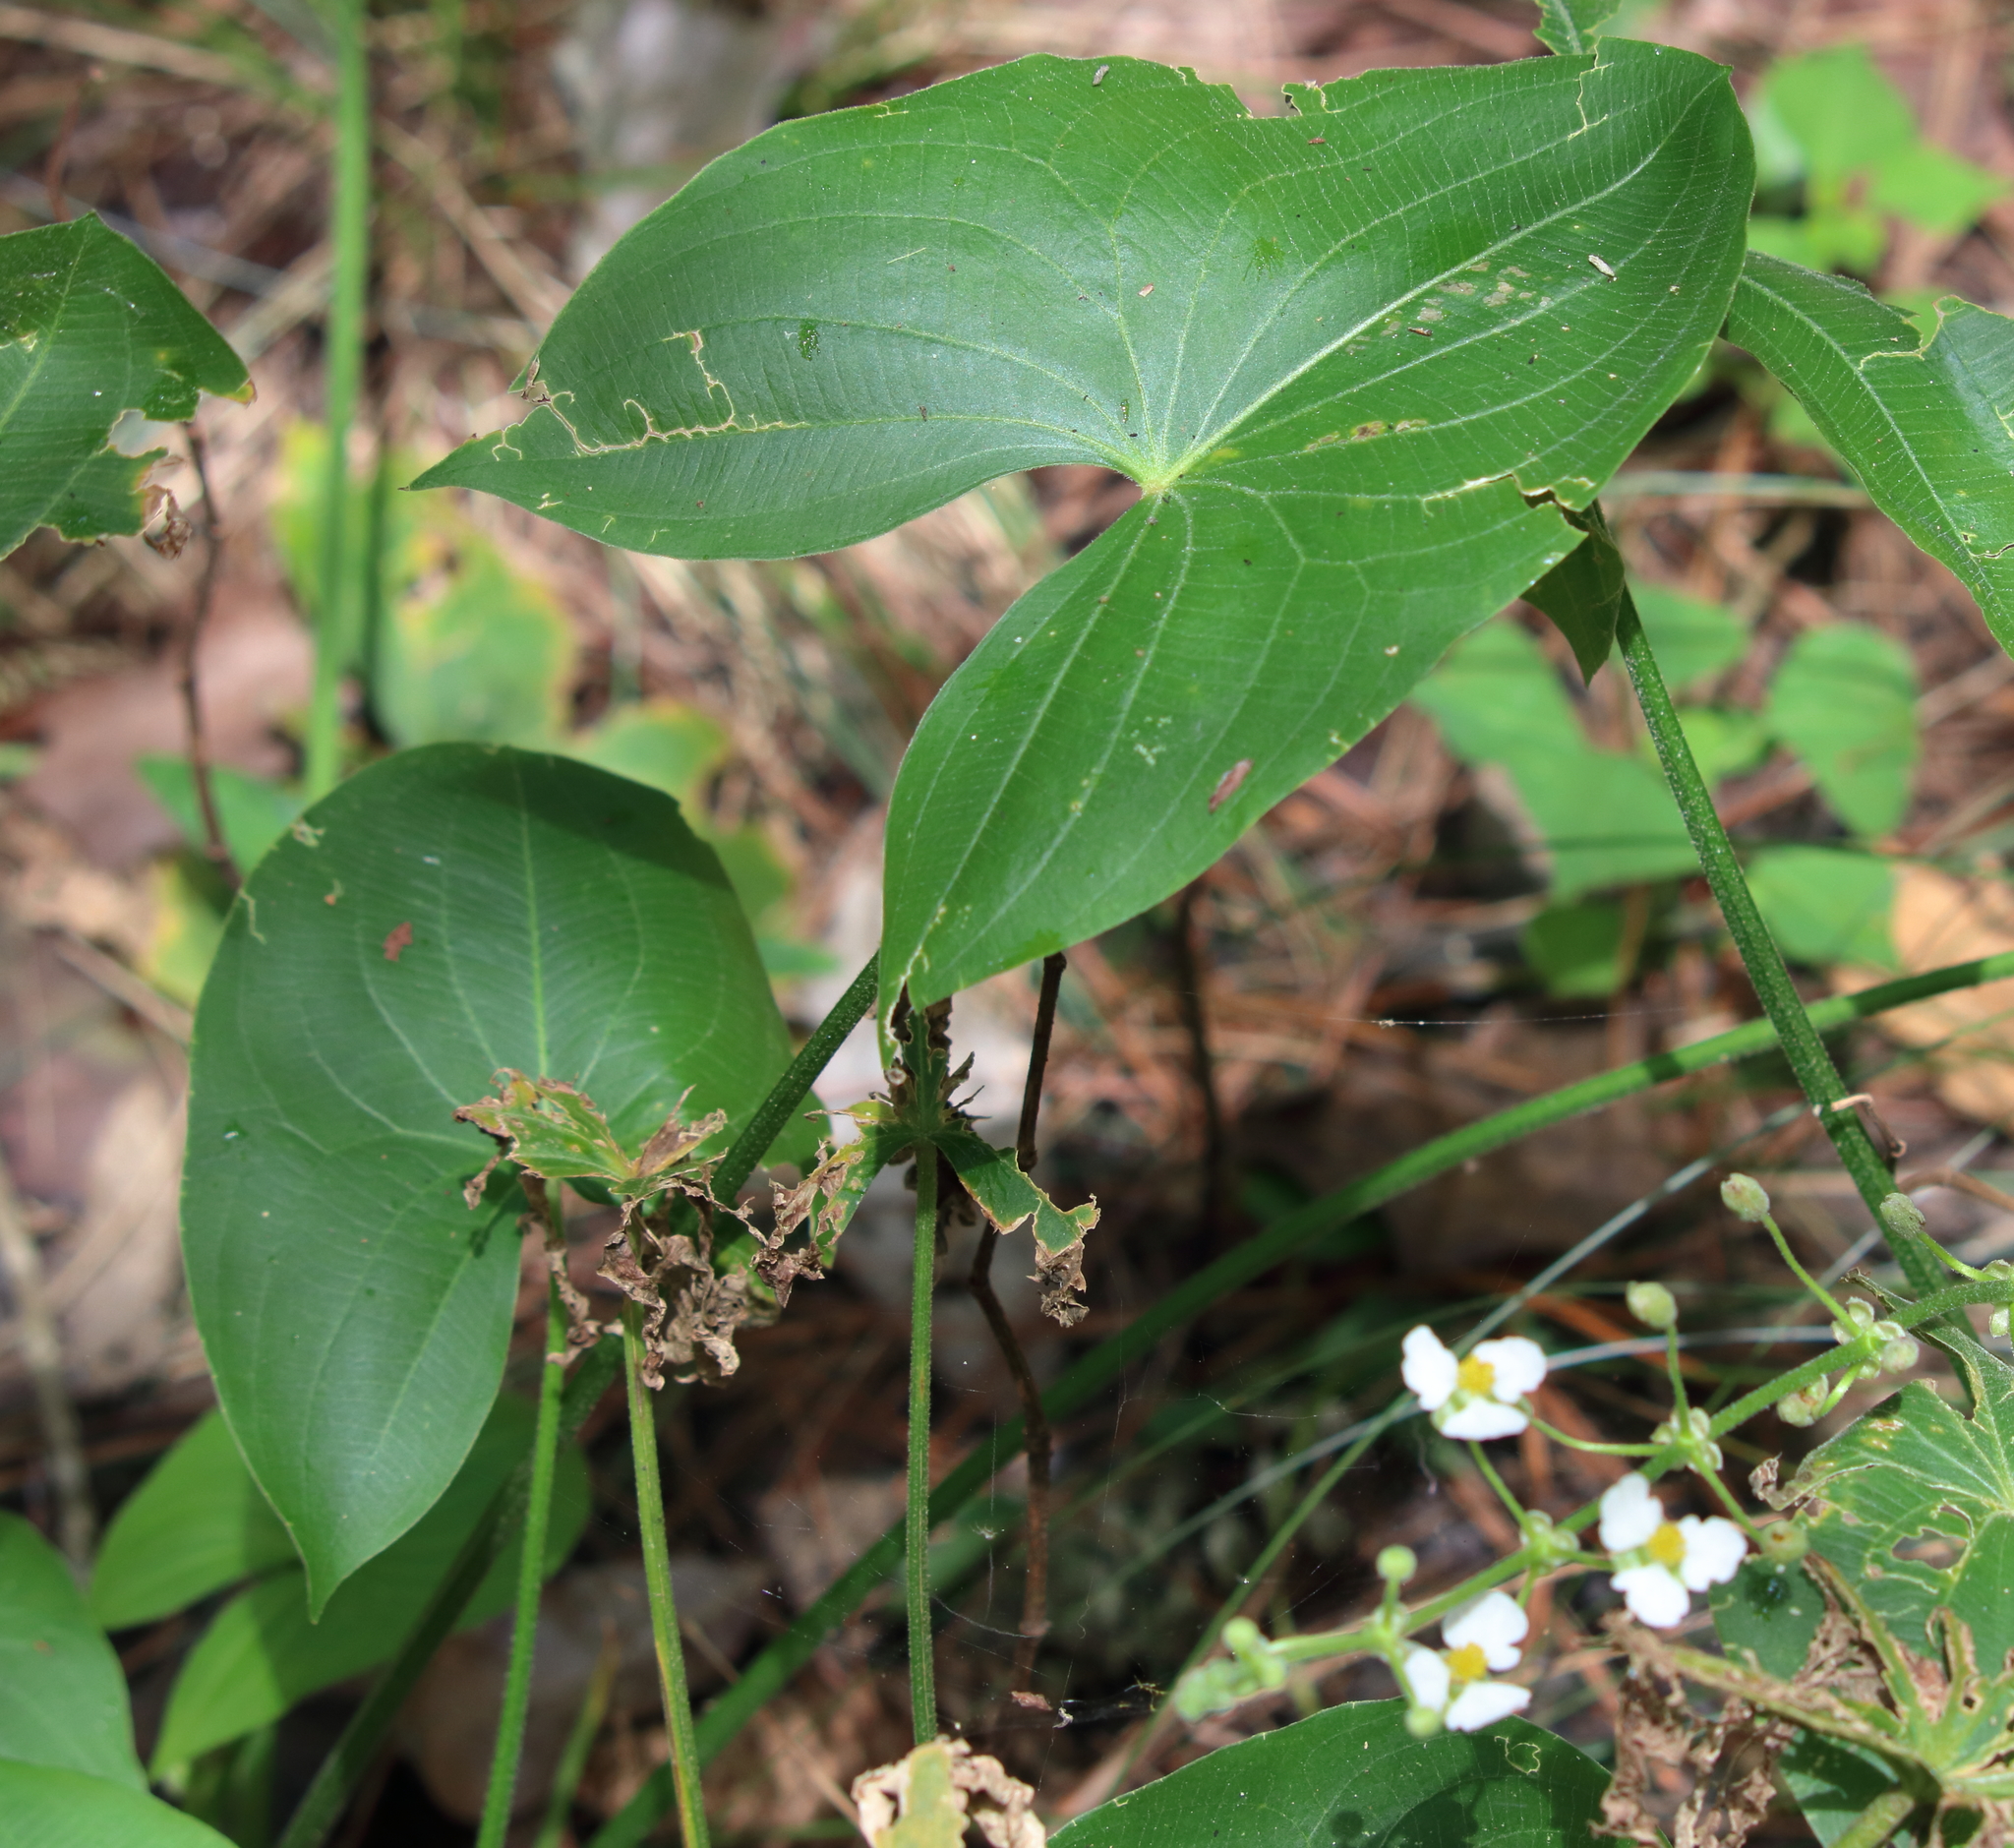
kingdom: Plantae
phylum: Tracheophyta
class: Liliopsida
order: Alismatales
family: Alismataceae
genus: Sagittaria
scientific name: Sagittaria latifolia
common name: Duck-potato
